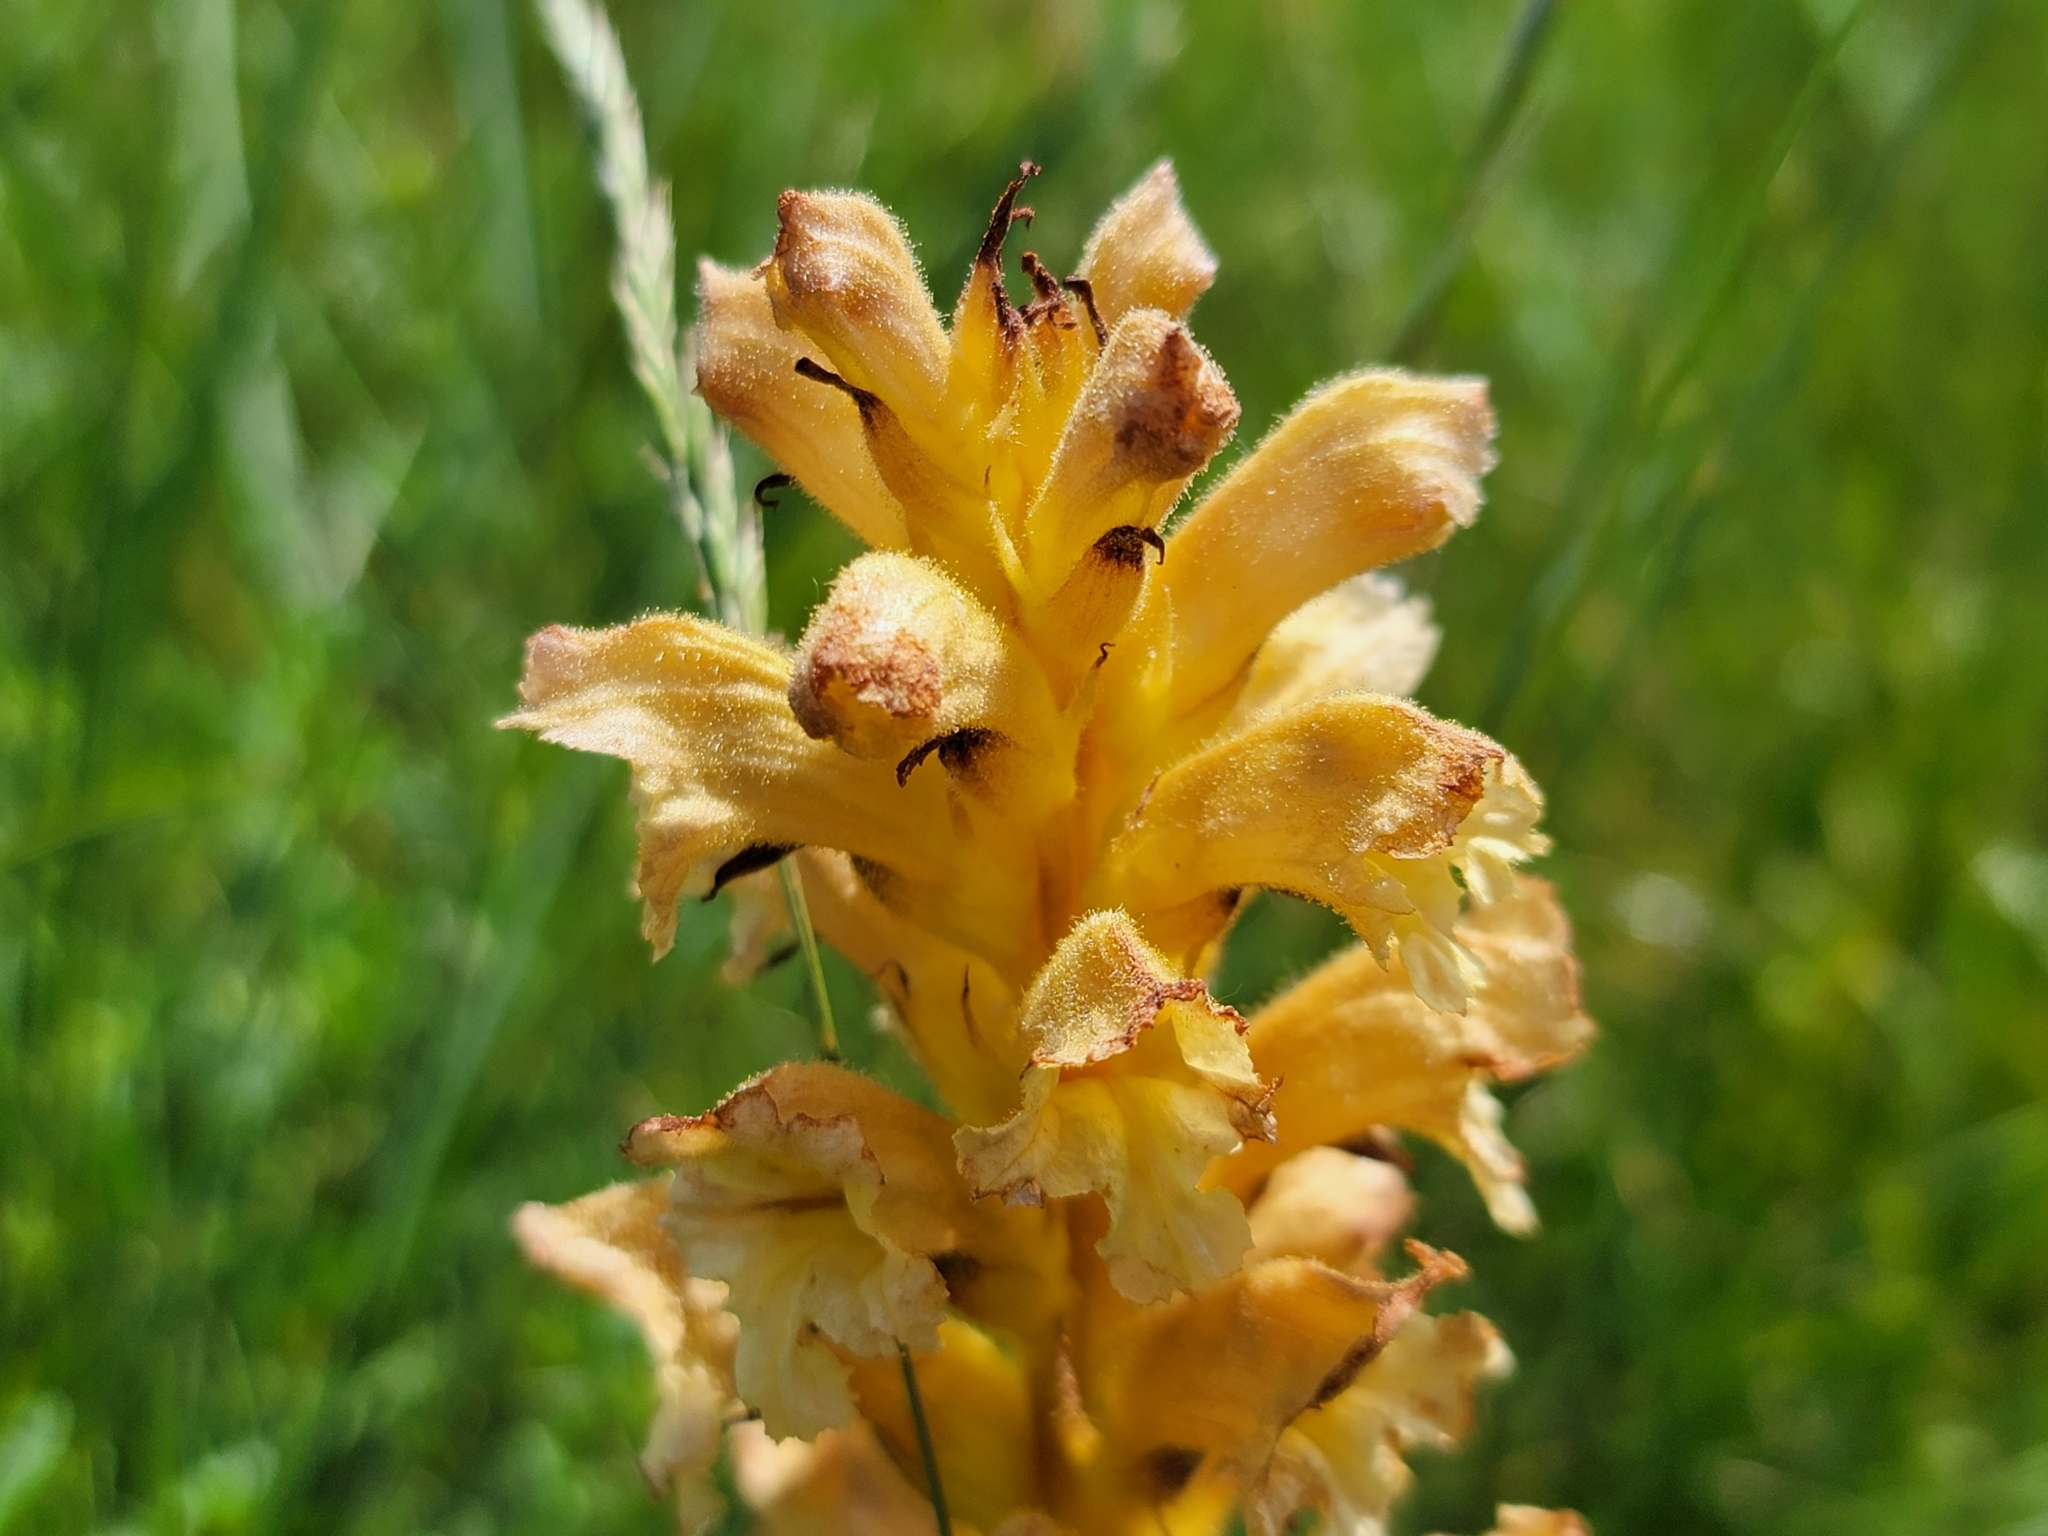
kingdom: Plantae
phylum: Tracheophyta
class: Magnoliopsida
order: Lamiales
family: Orobanchaceae
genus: Orobanche
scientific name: Orobanche lutea
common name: Yellow broomrape
